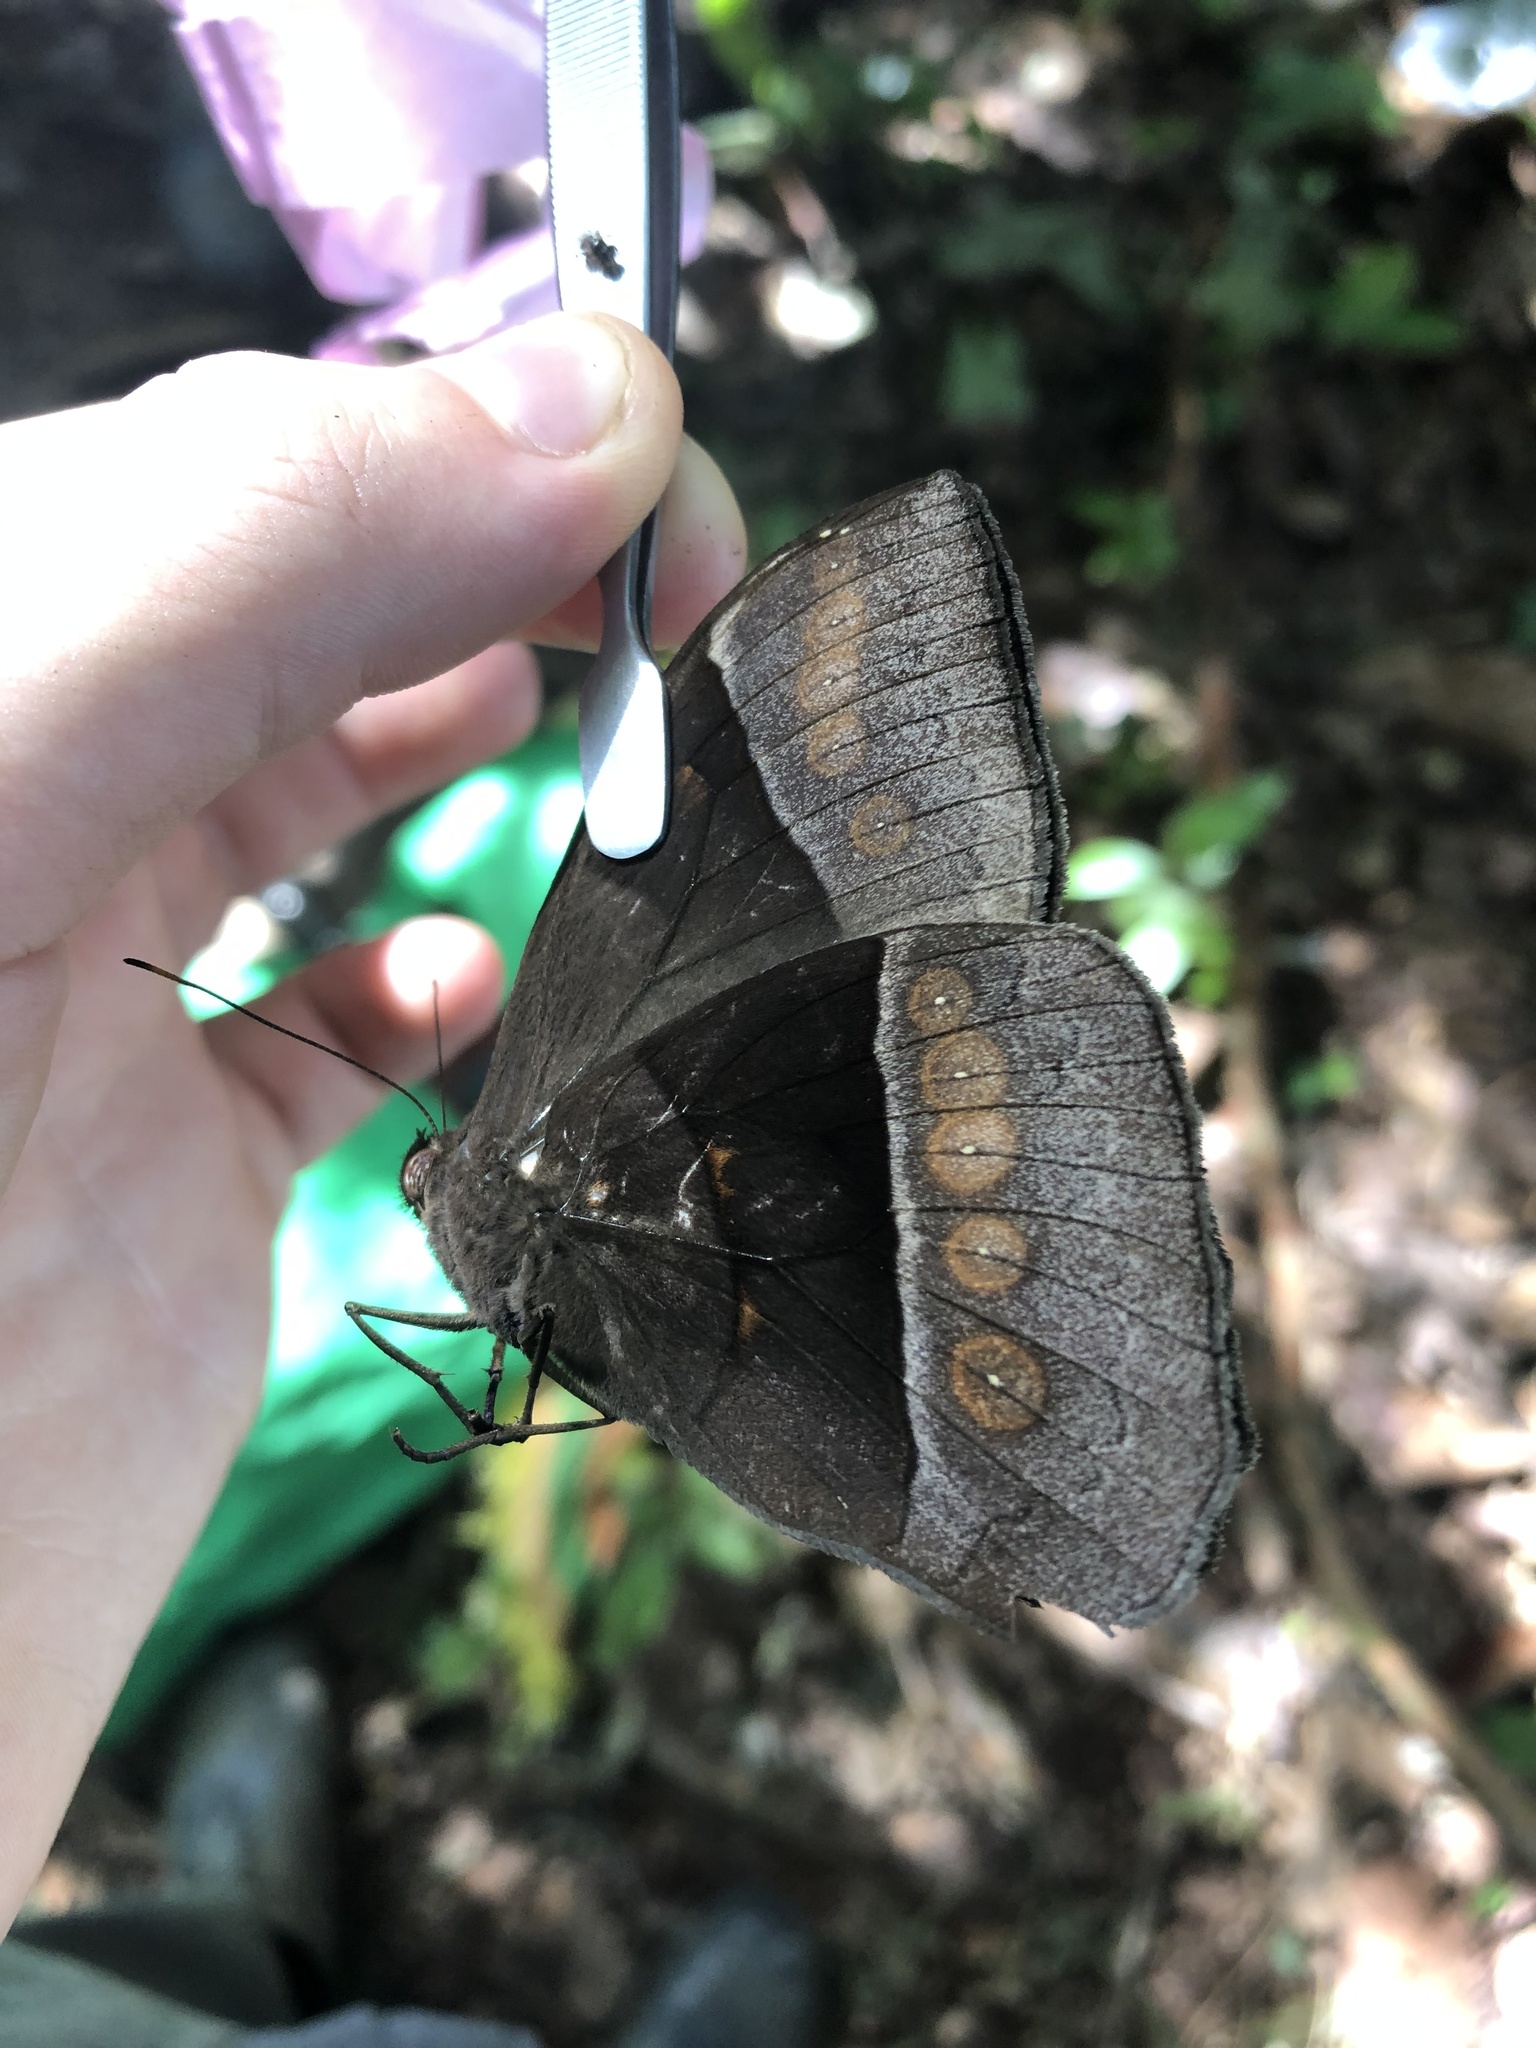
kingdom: Animalia
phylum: Arthropoda
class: Insecta
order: Lepidoptera
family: Nymphalidae
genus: Taygetis
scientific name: Taygetis oyapock
